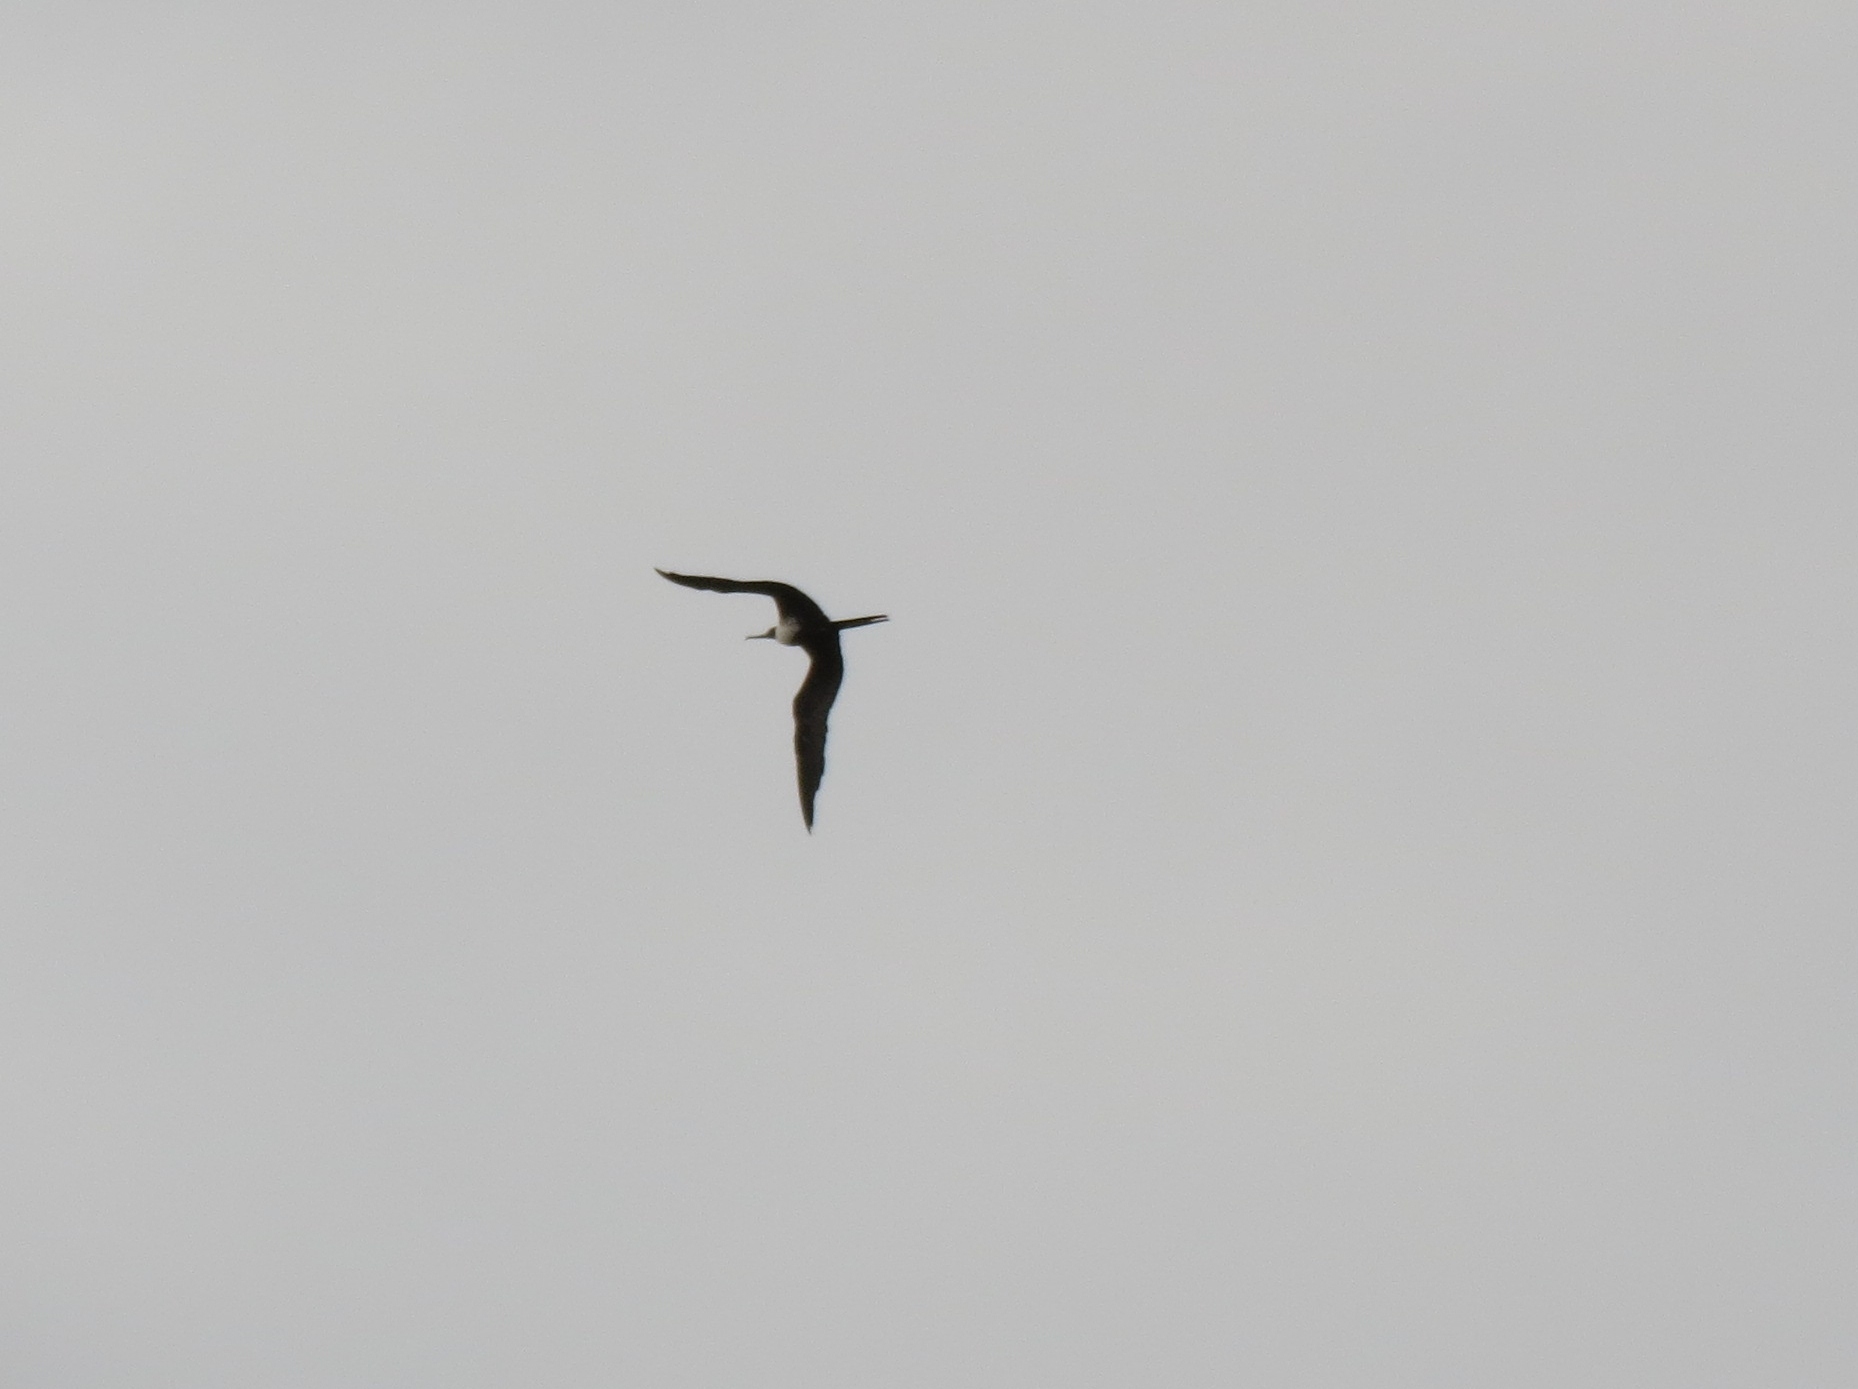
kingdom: Animalia
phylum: Chordata
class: Aves
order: Suliformes
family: Fregatidae
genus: Fregata
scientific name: Fregata magnificens
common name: Magnificent frigatebird
